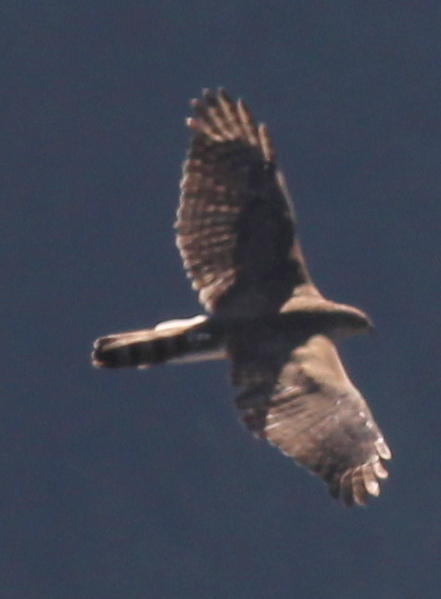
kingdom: Animalia
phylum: Chordata
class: Aves
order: Accipitriformes
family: Accipitridae
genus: Accipiter
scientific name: Accipiter gentilis
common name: Northern goshawk
